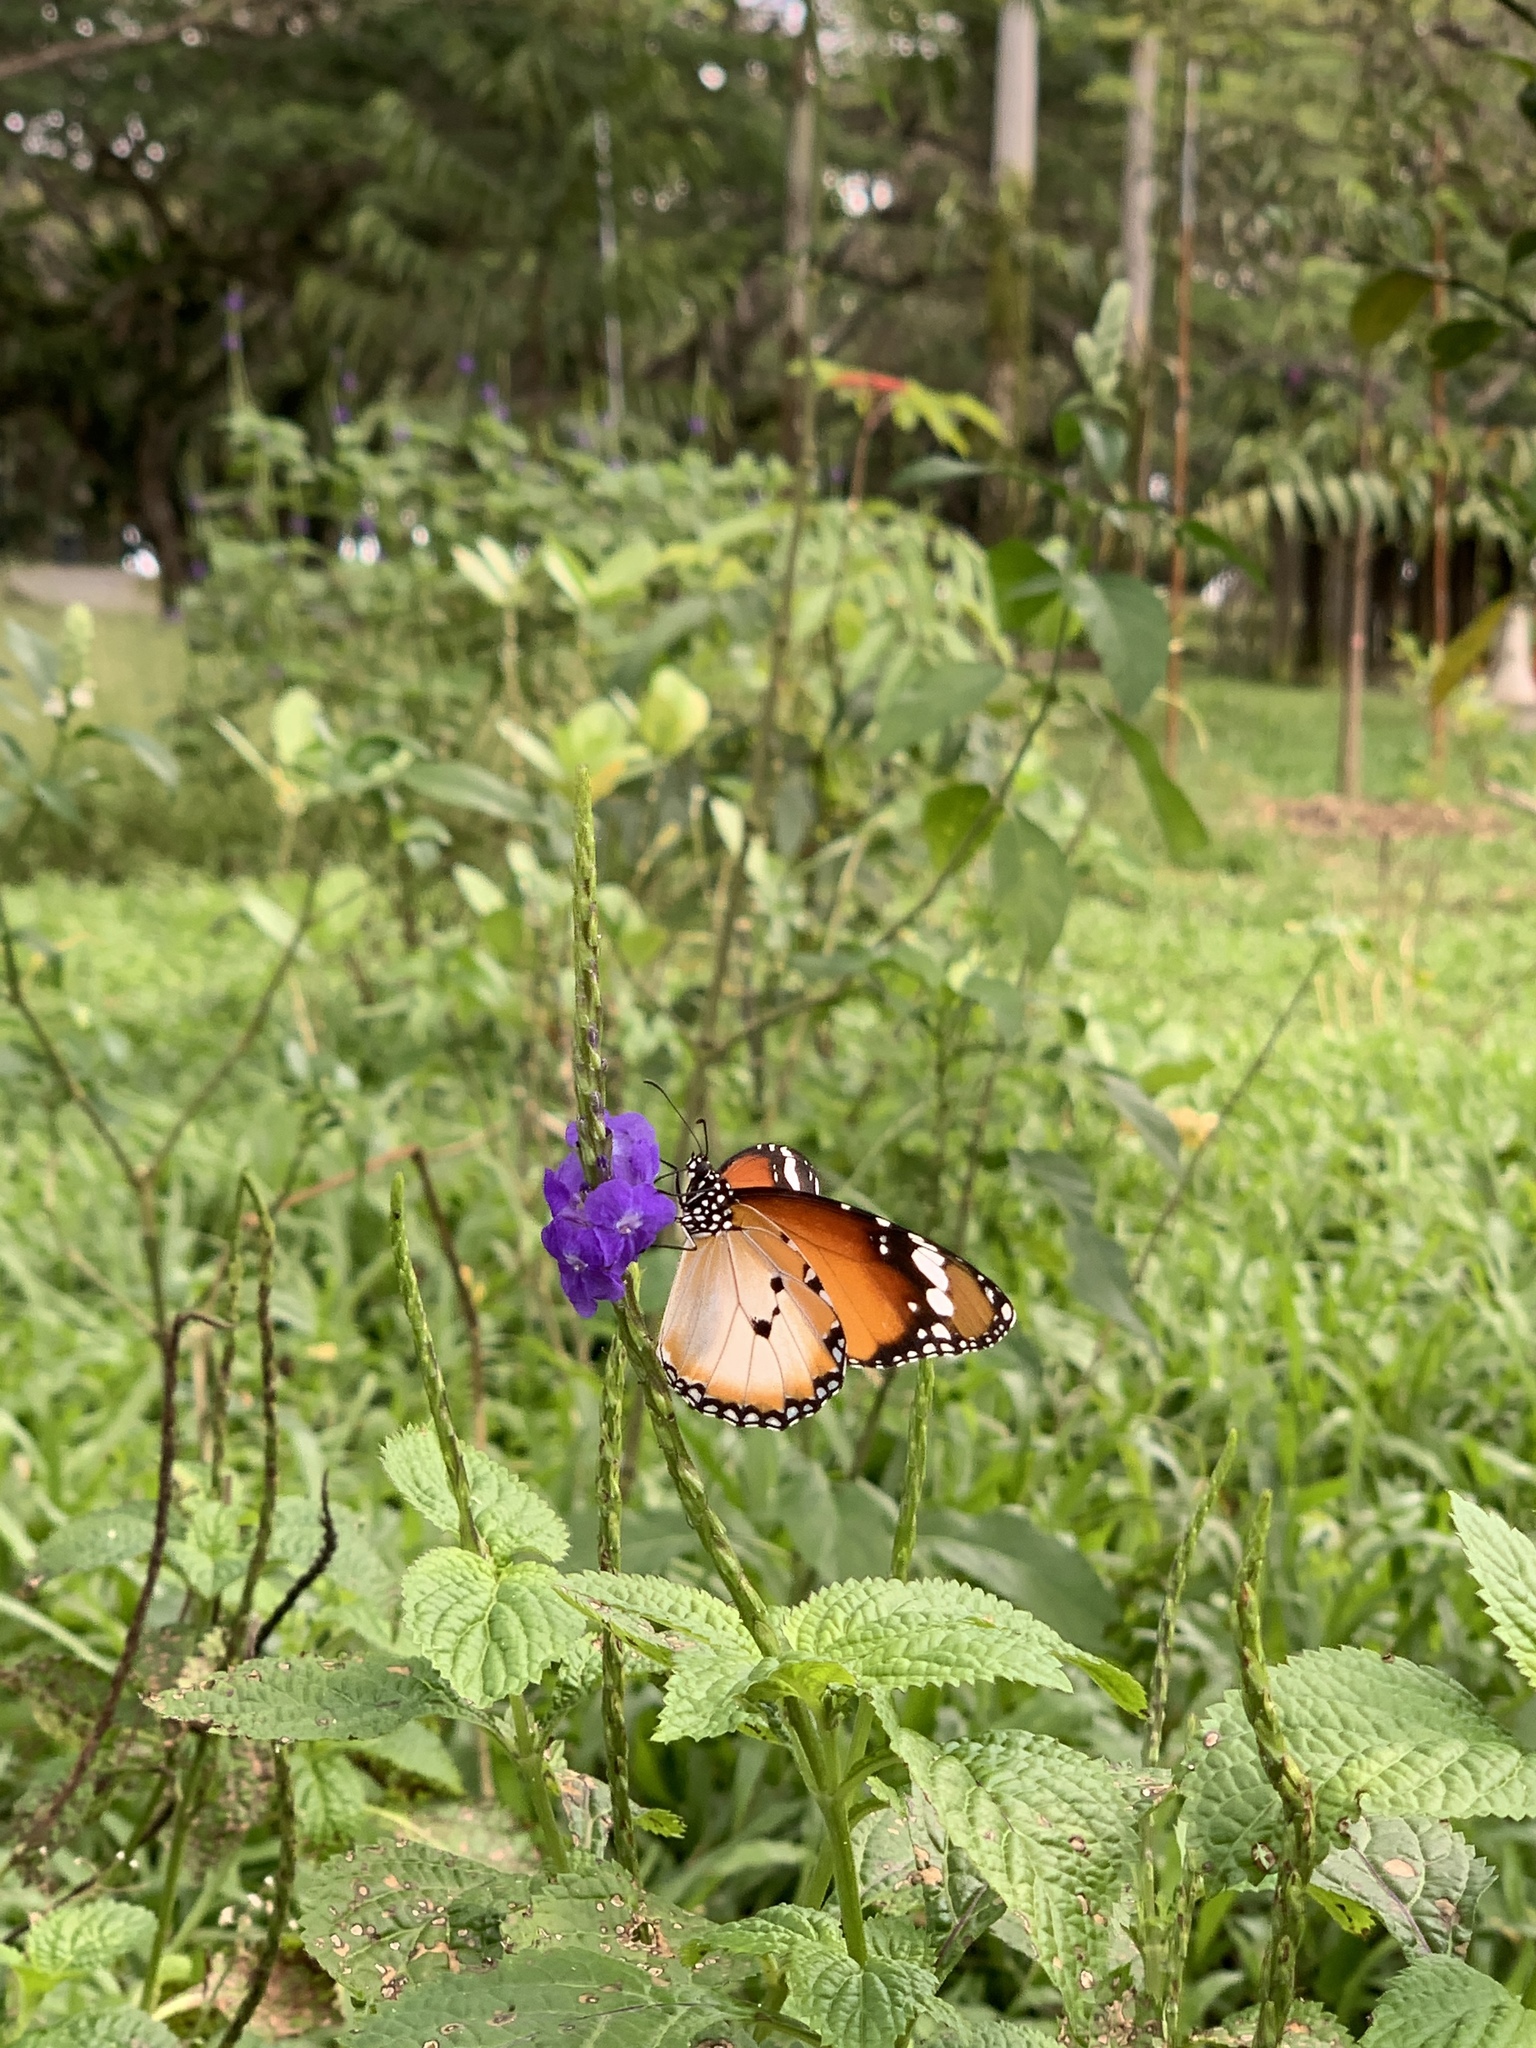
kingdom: Animalia
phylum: Arthropoda
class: Insecta
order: Lepidoptera
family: Nymphalidae
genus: Danaus
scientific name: Danaus chrysippus
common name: Plain tiger
